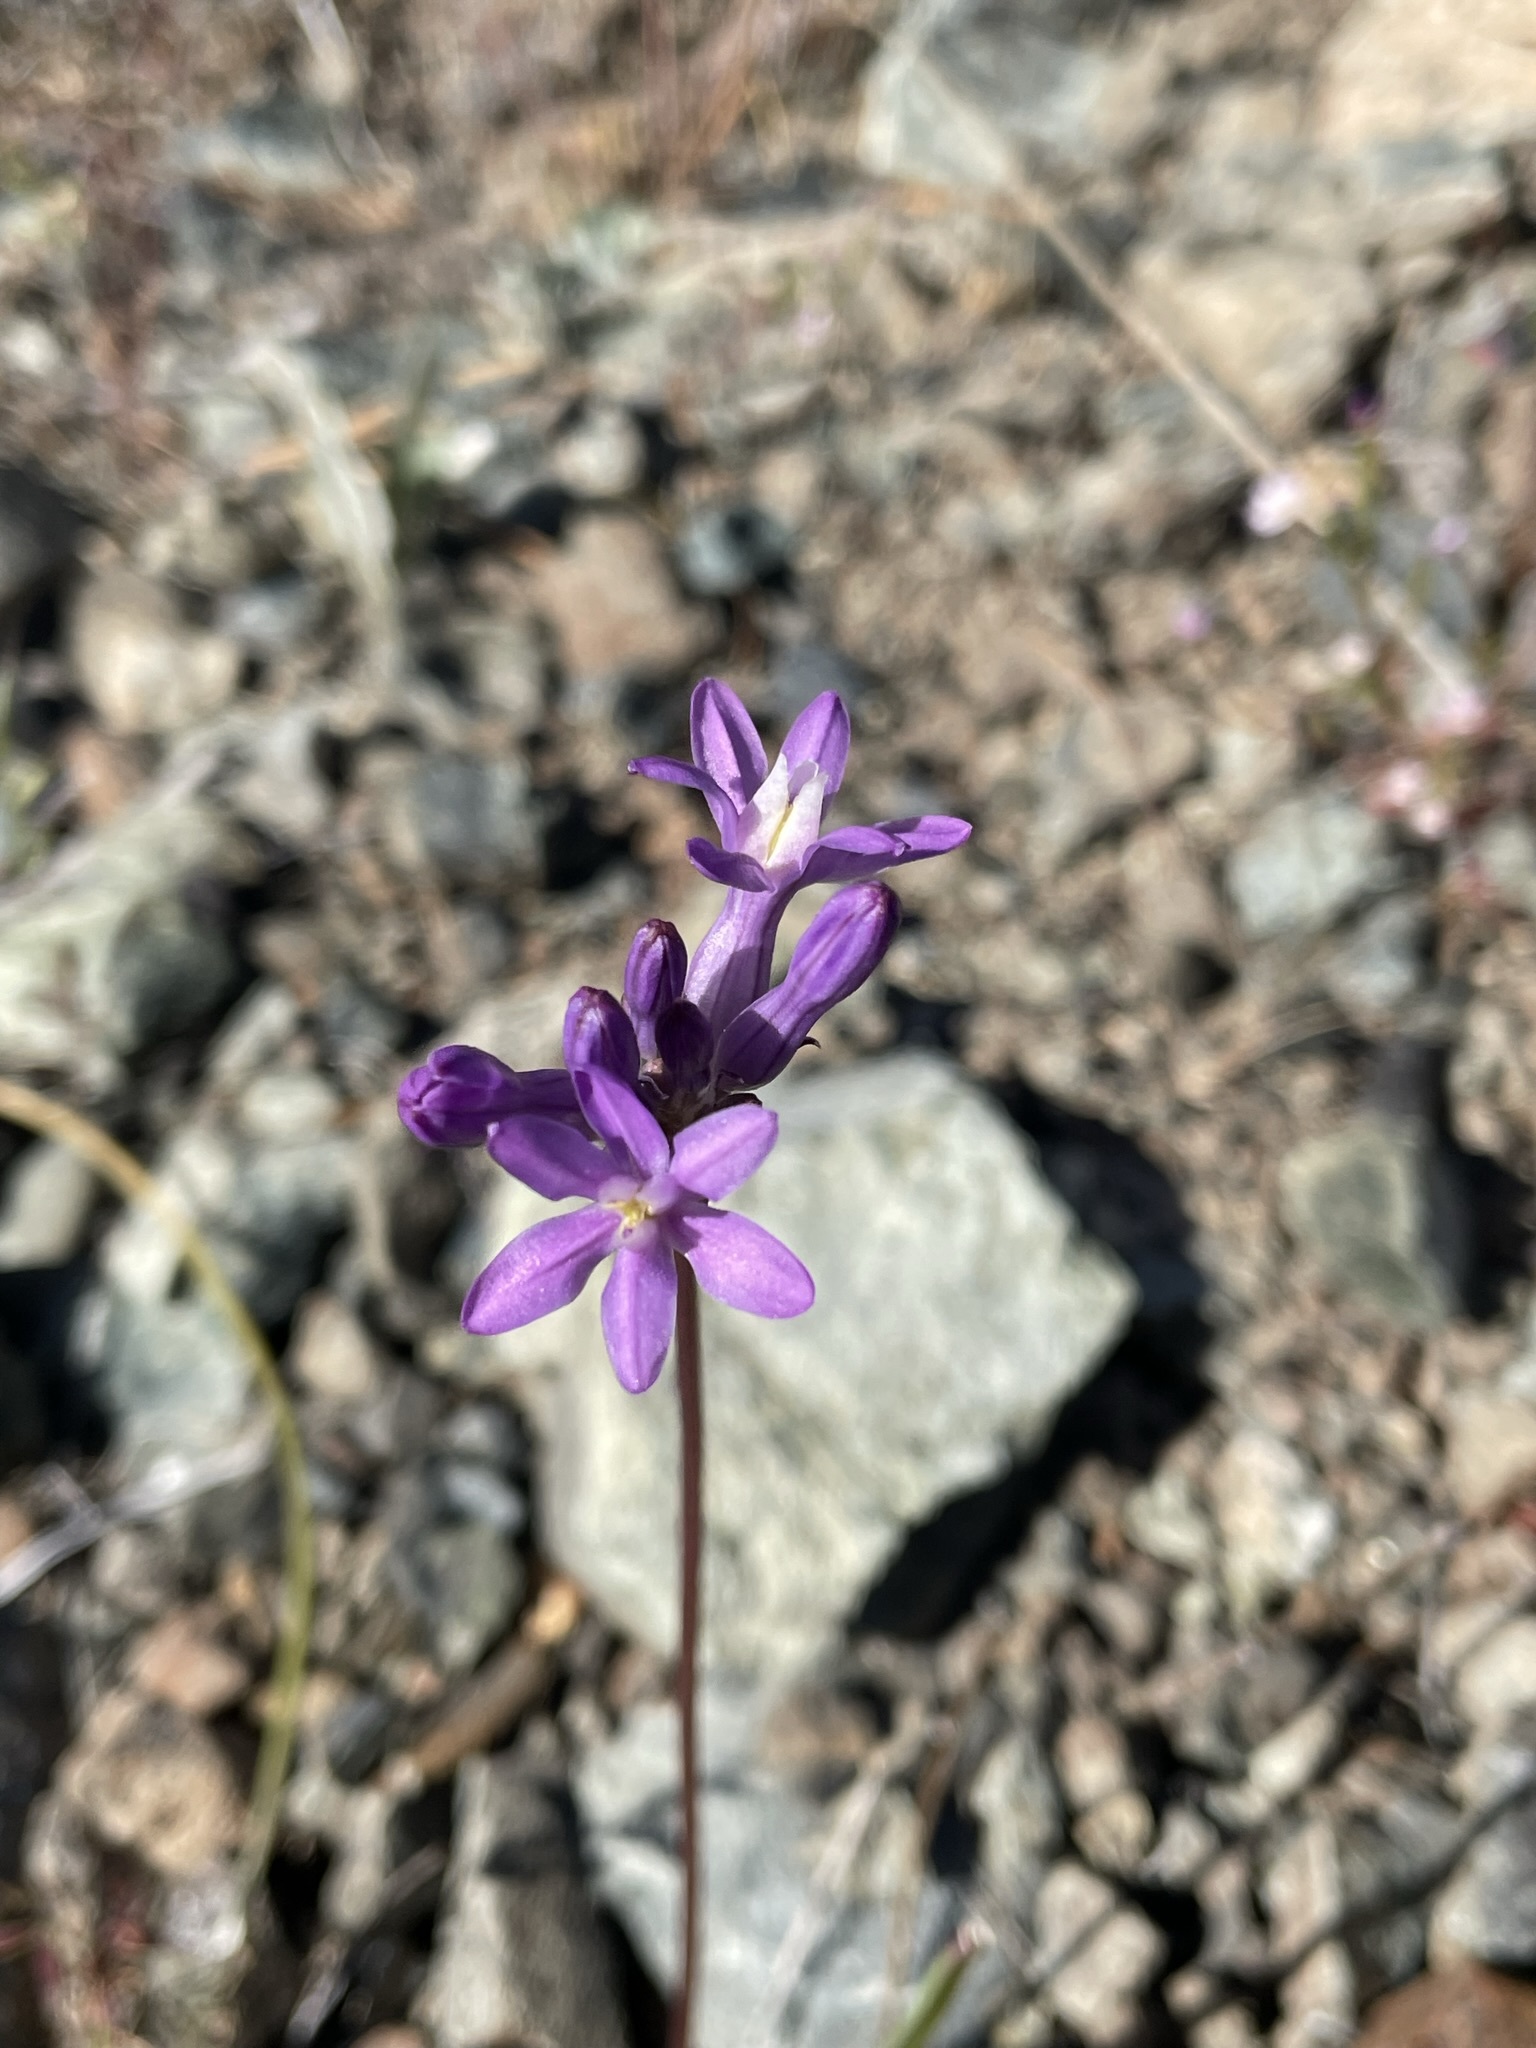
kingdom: Plantae
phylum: Tracheophyta
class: Liliopsida
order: Asparagales
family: Asparagaceae
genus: Dichelostemma
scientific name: Dichelostemma multiflorum
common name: Round-tooth ookow
